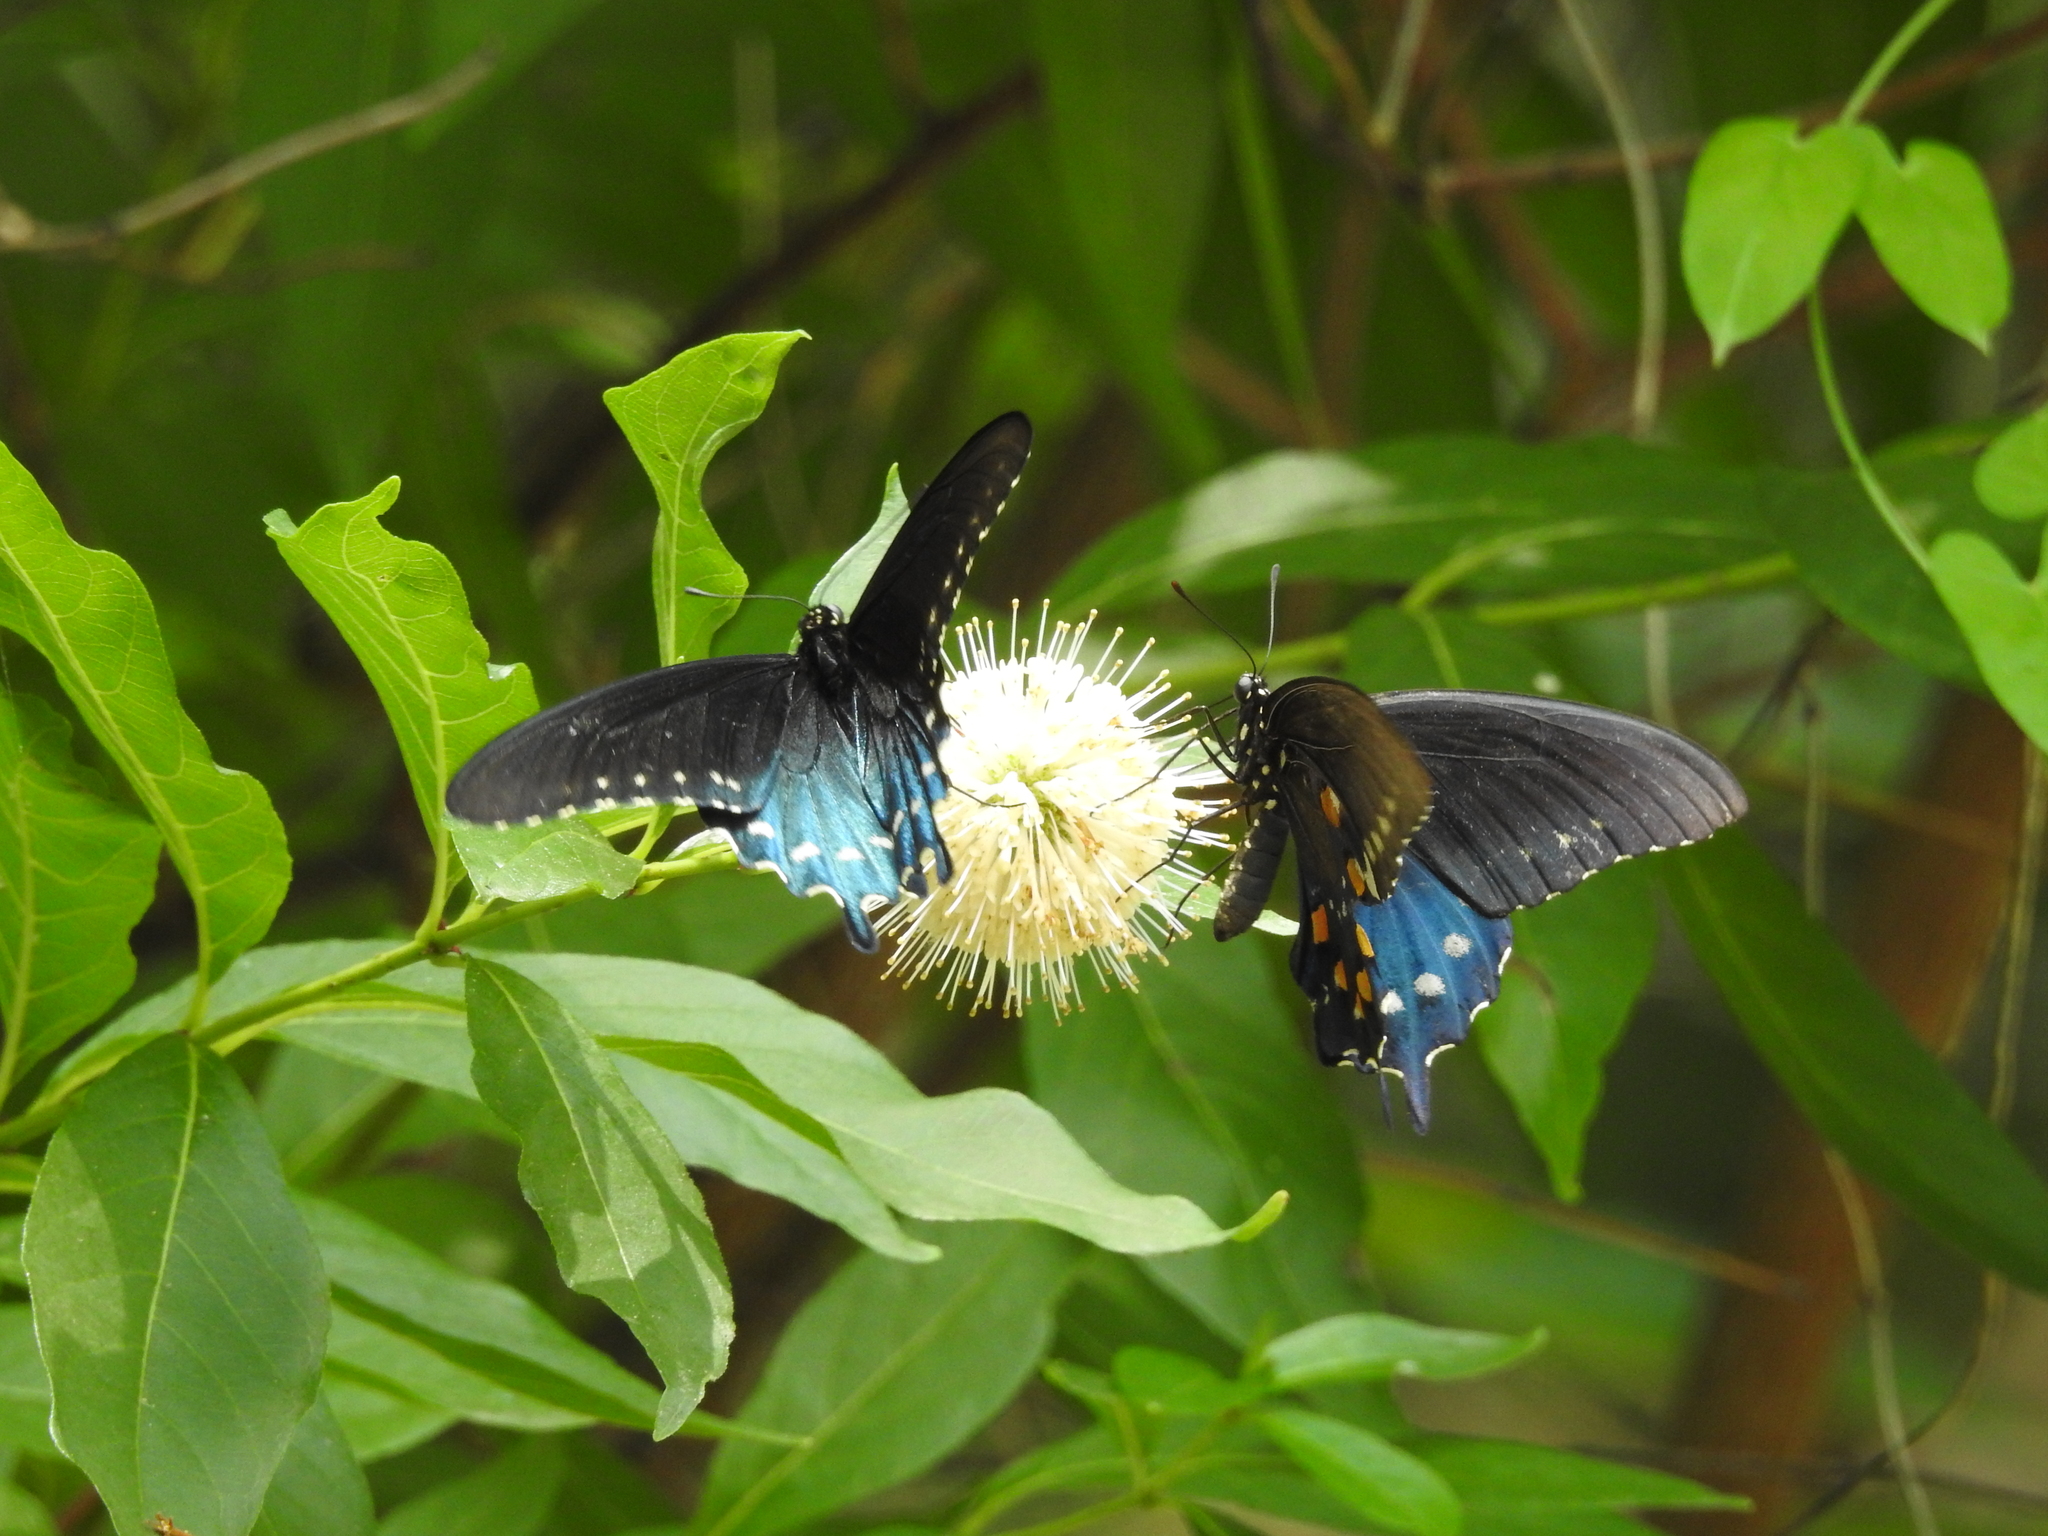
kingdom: Animalia
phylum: Arthropoda
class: Insecta
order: Lepidoptera
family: Papilionidae
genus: Battus
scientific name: Battus philenor
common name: Pipevine swallowtail
